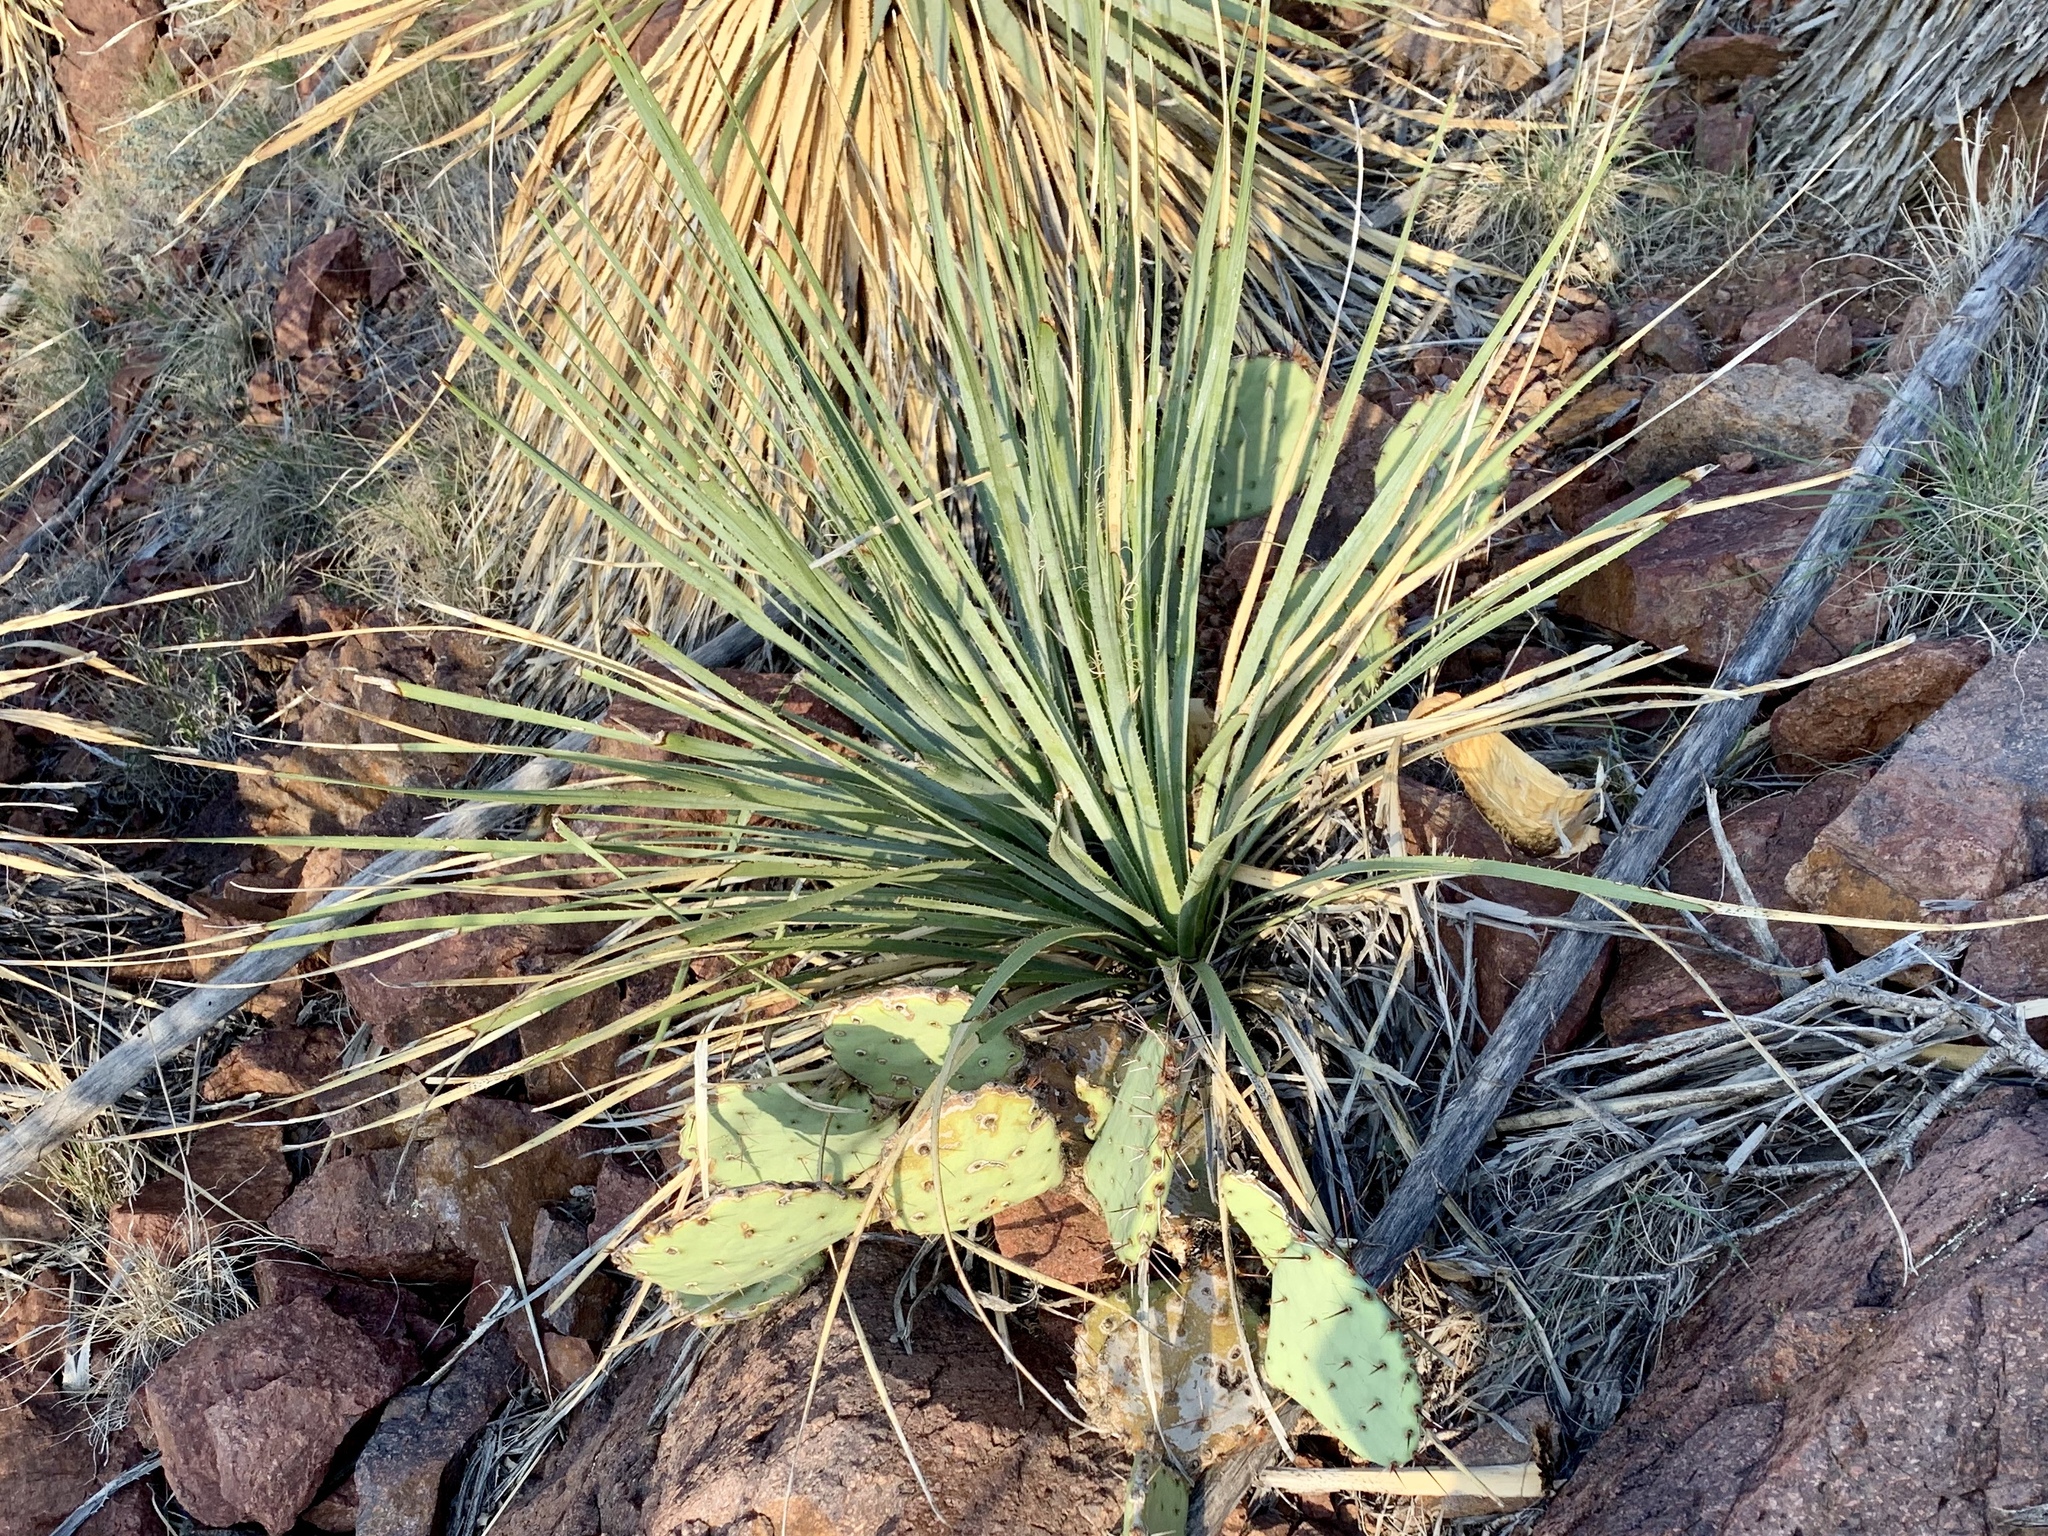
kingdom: Plantae
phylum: Tracheophyta
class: Liliopsida
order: Asparagales
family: Asparagaceae
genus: Dasylirion
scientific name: Dasylirion wheeleri
